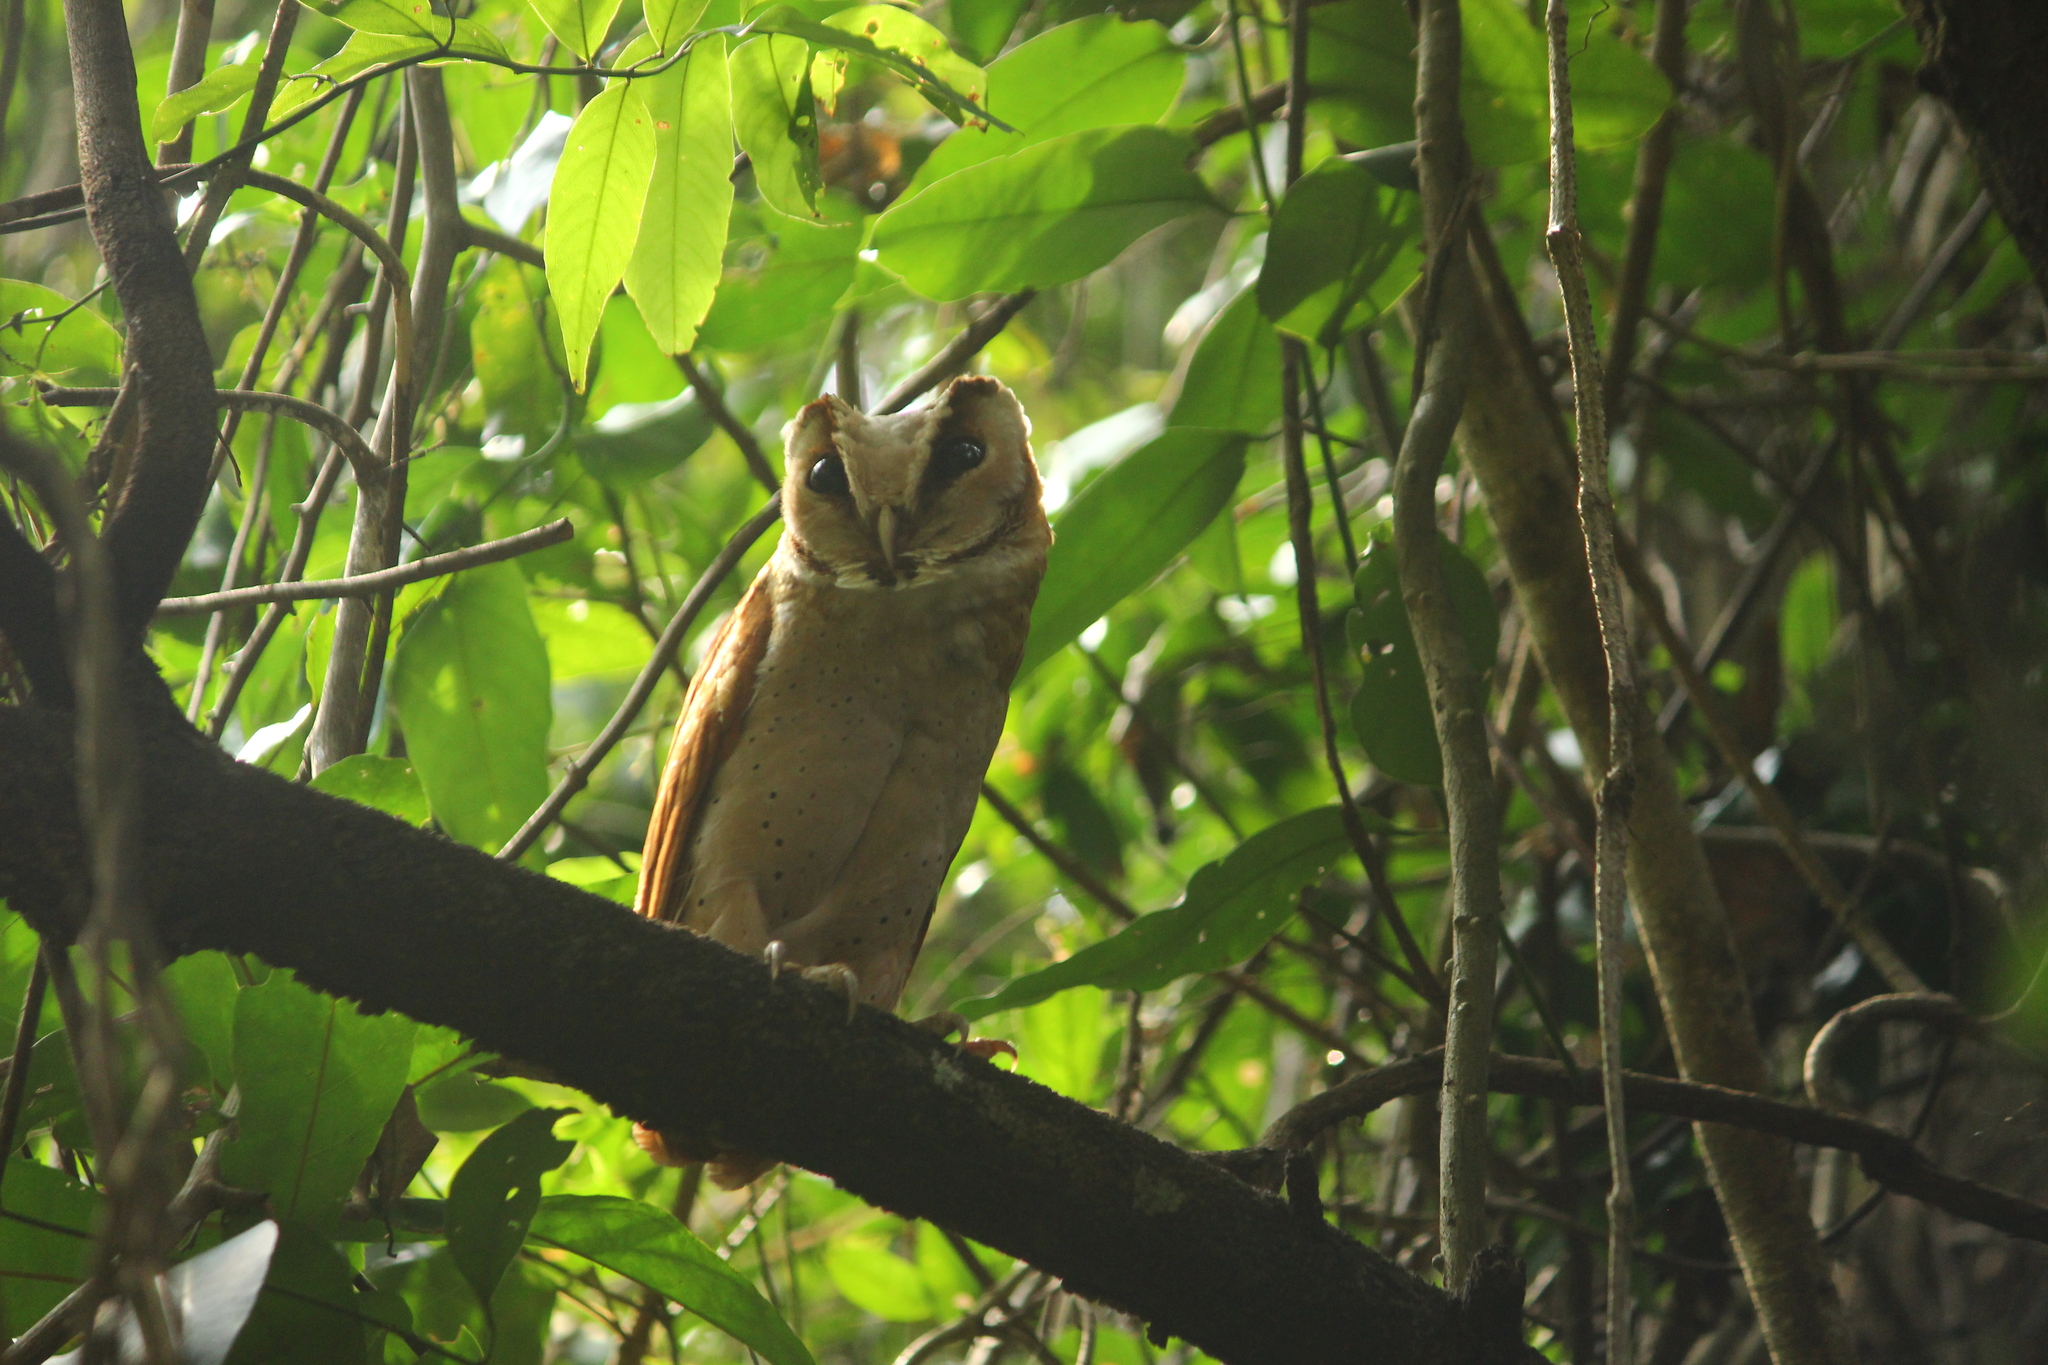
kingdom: Animalia
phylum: Chordata
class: Aves
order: Strigiformes
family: Tytonidae
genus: Phodilus
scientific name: Phodilus badius
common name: Oriental bay-owl
